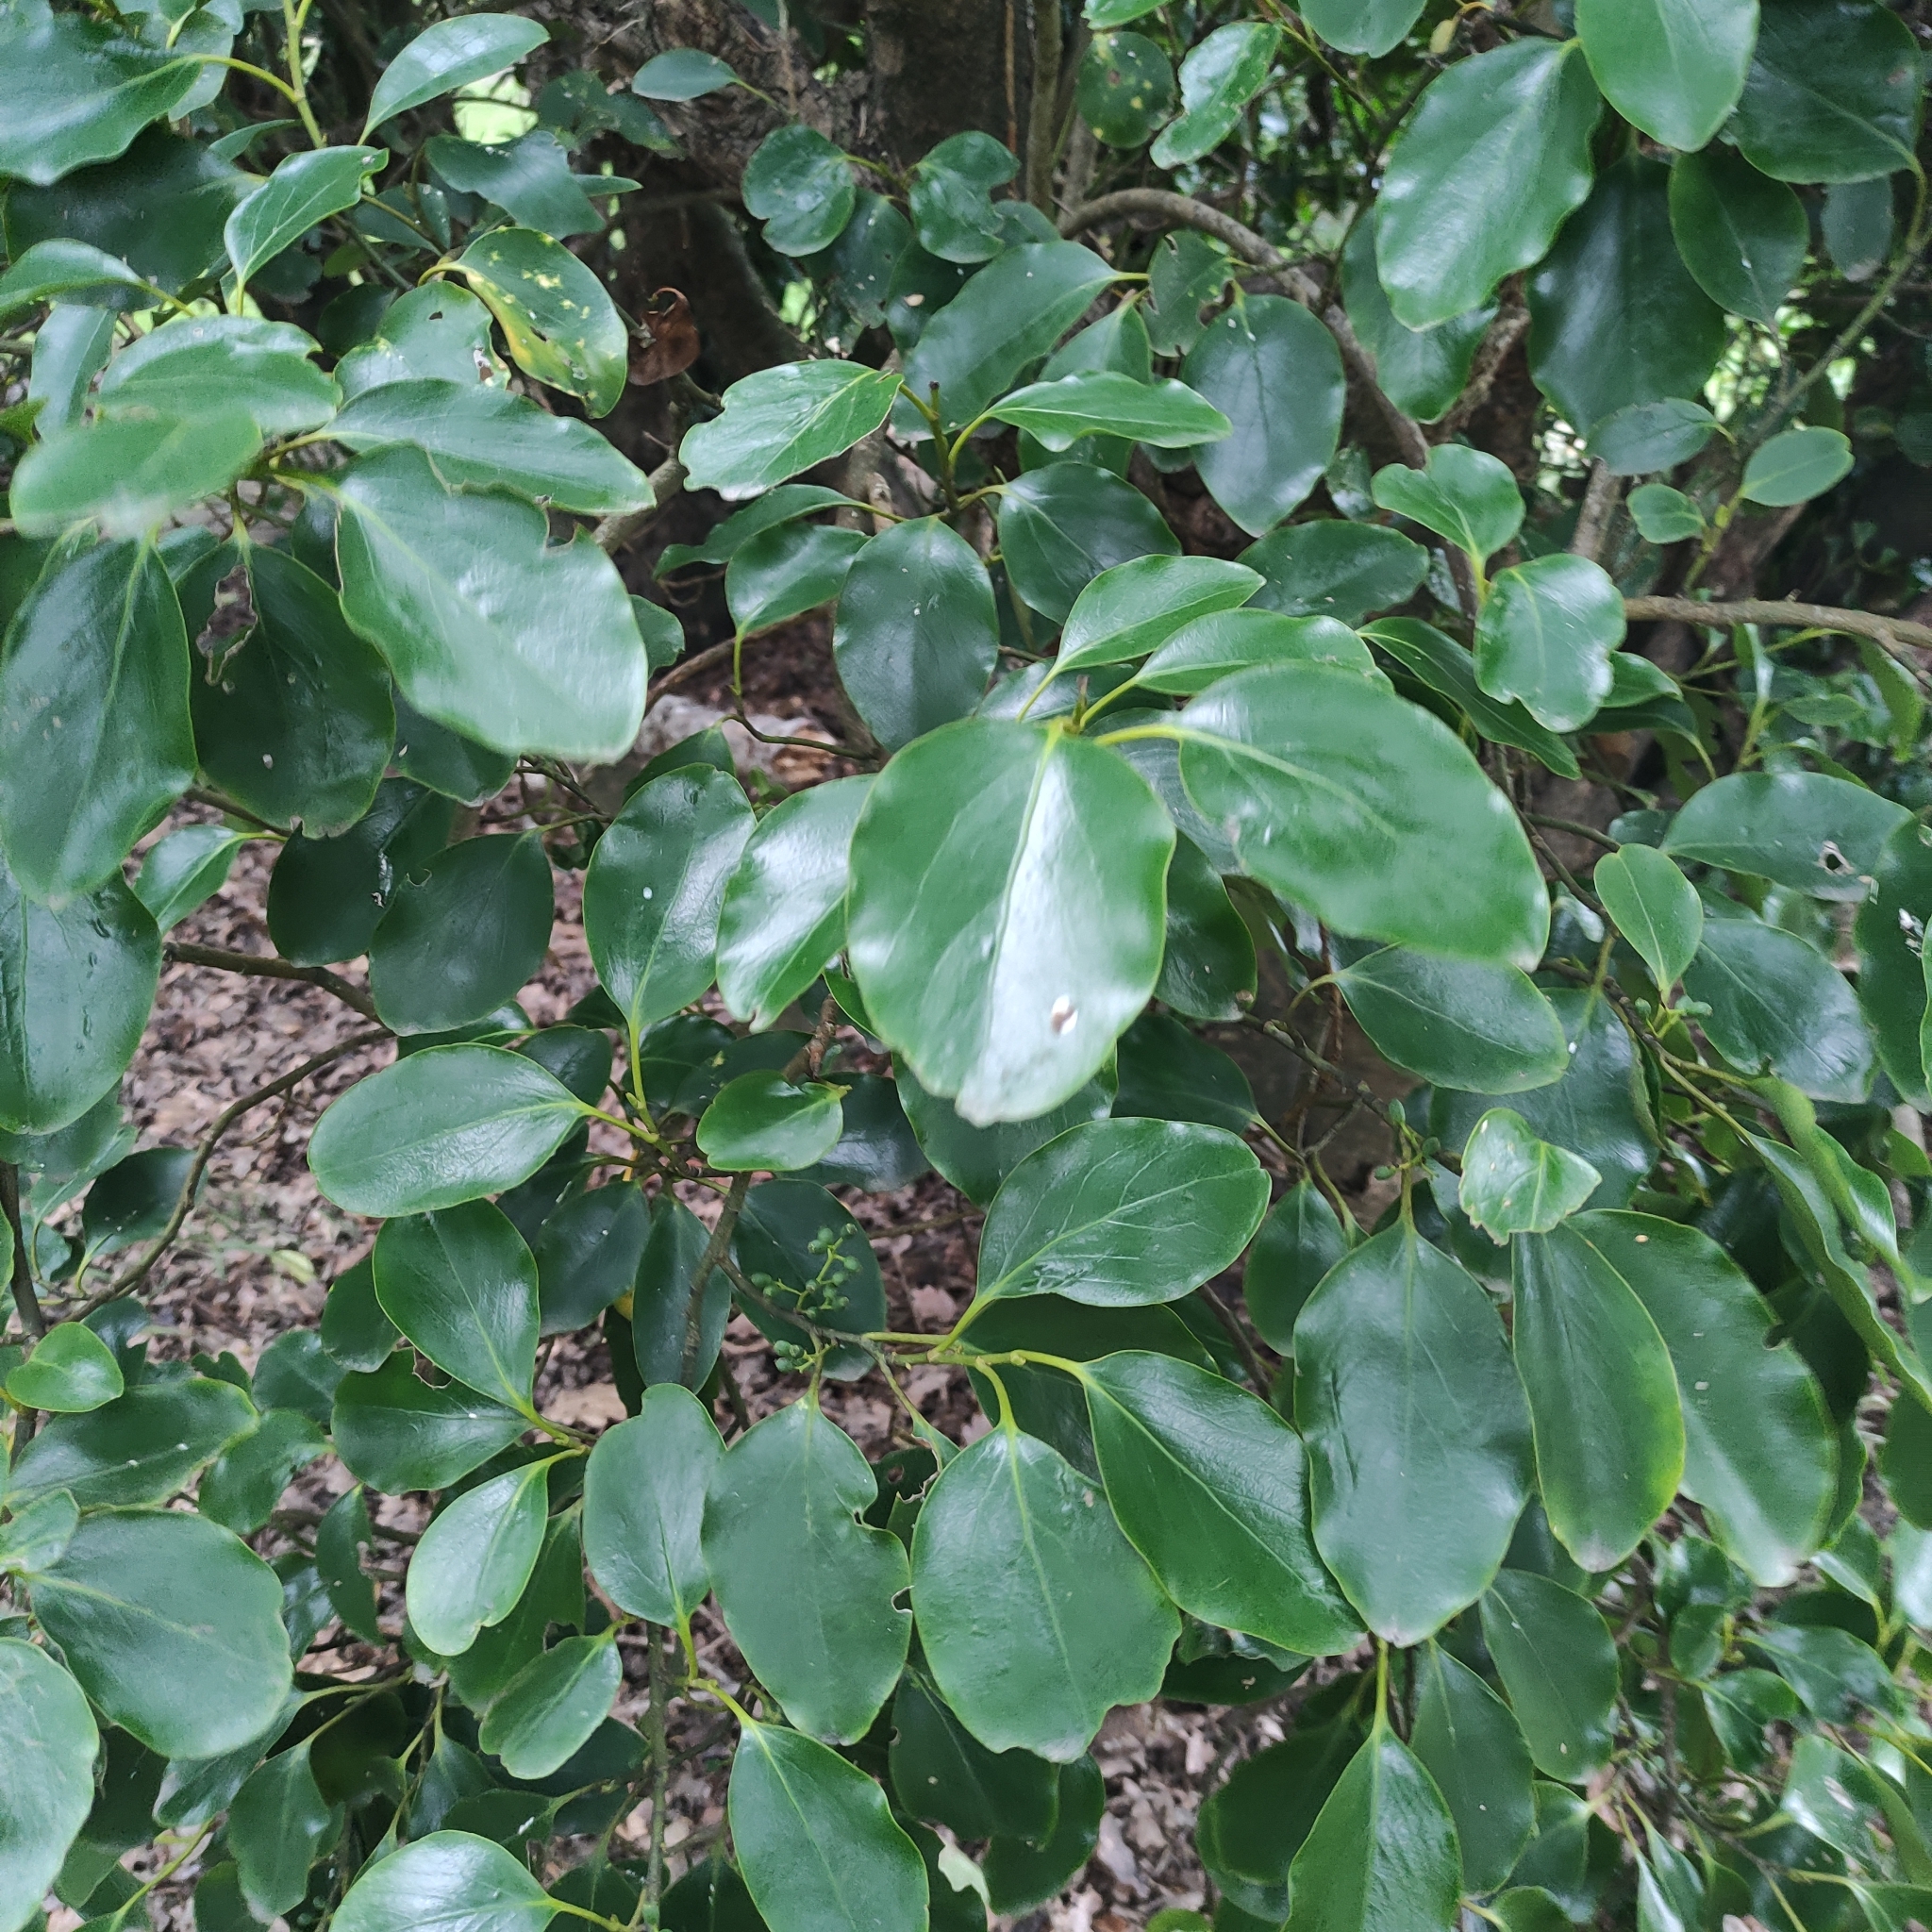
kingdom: Plantae
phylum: Tracheophyta
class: Magnoliopsida
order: Apiales
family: Griseliniaceae
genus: Griselinia
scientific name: Griselinia littoralis
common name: New zealand broadleaf
